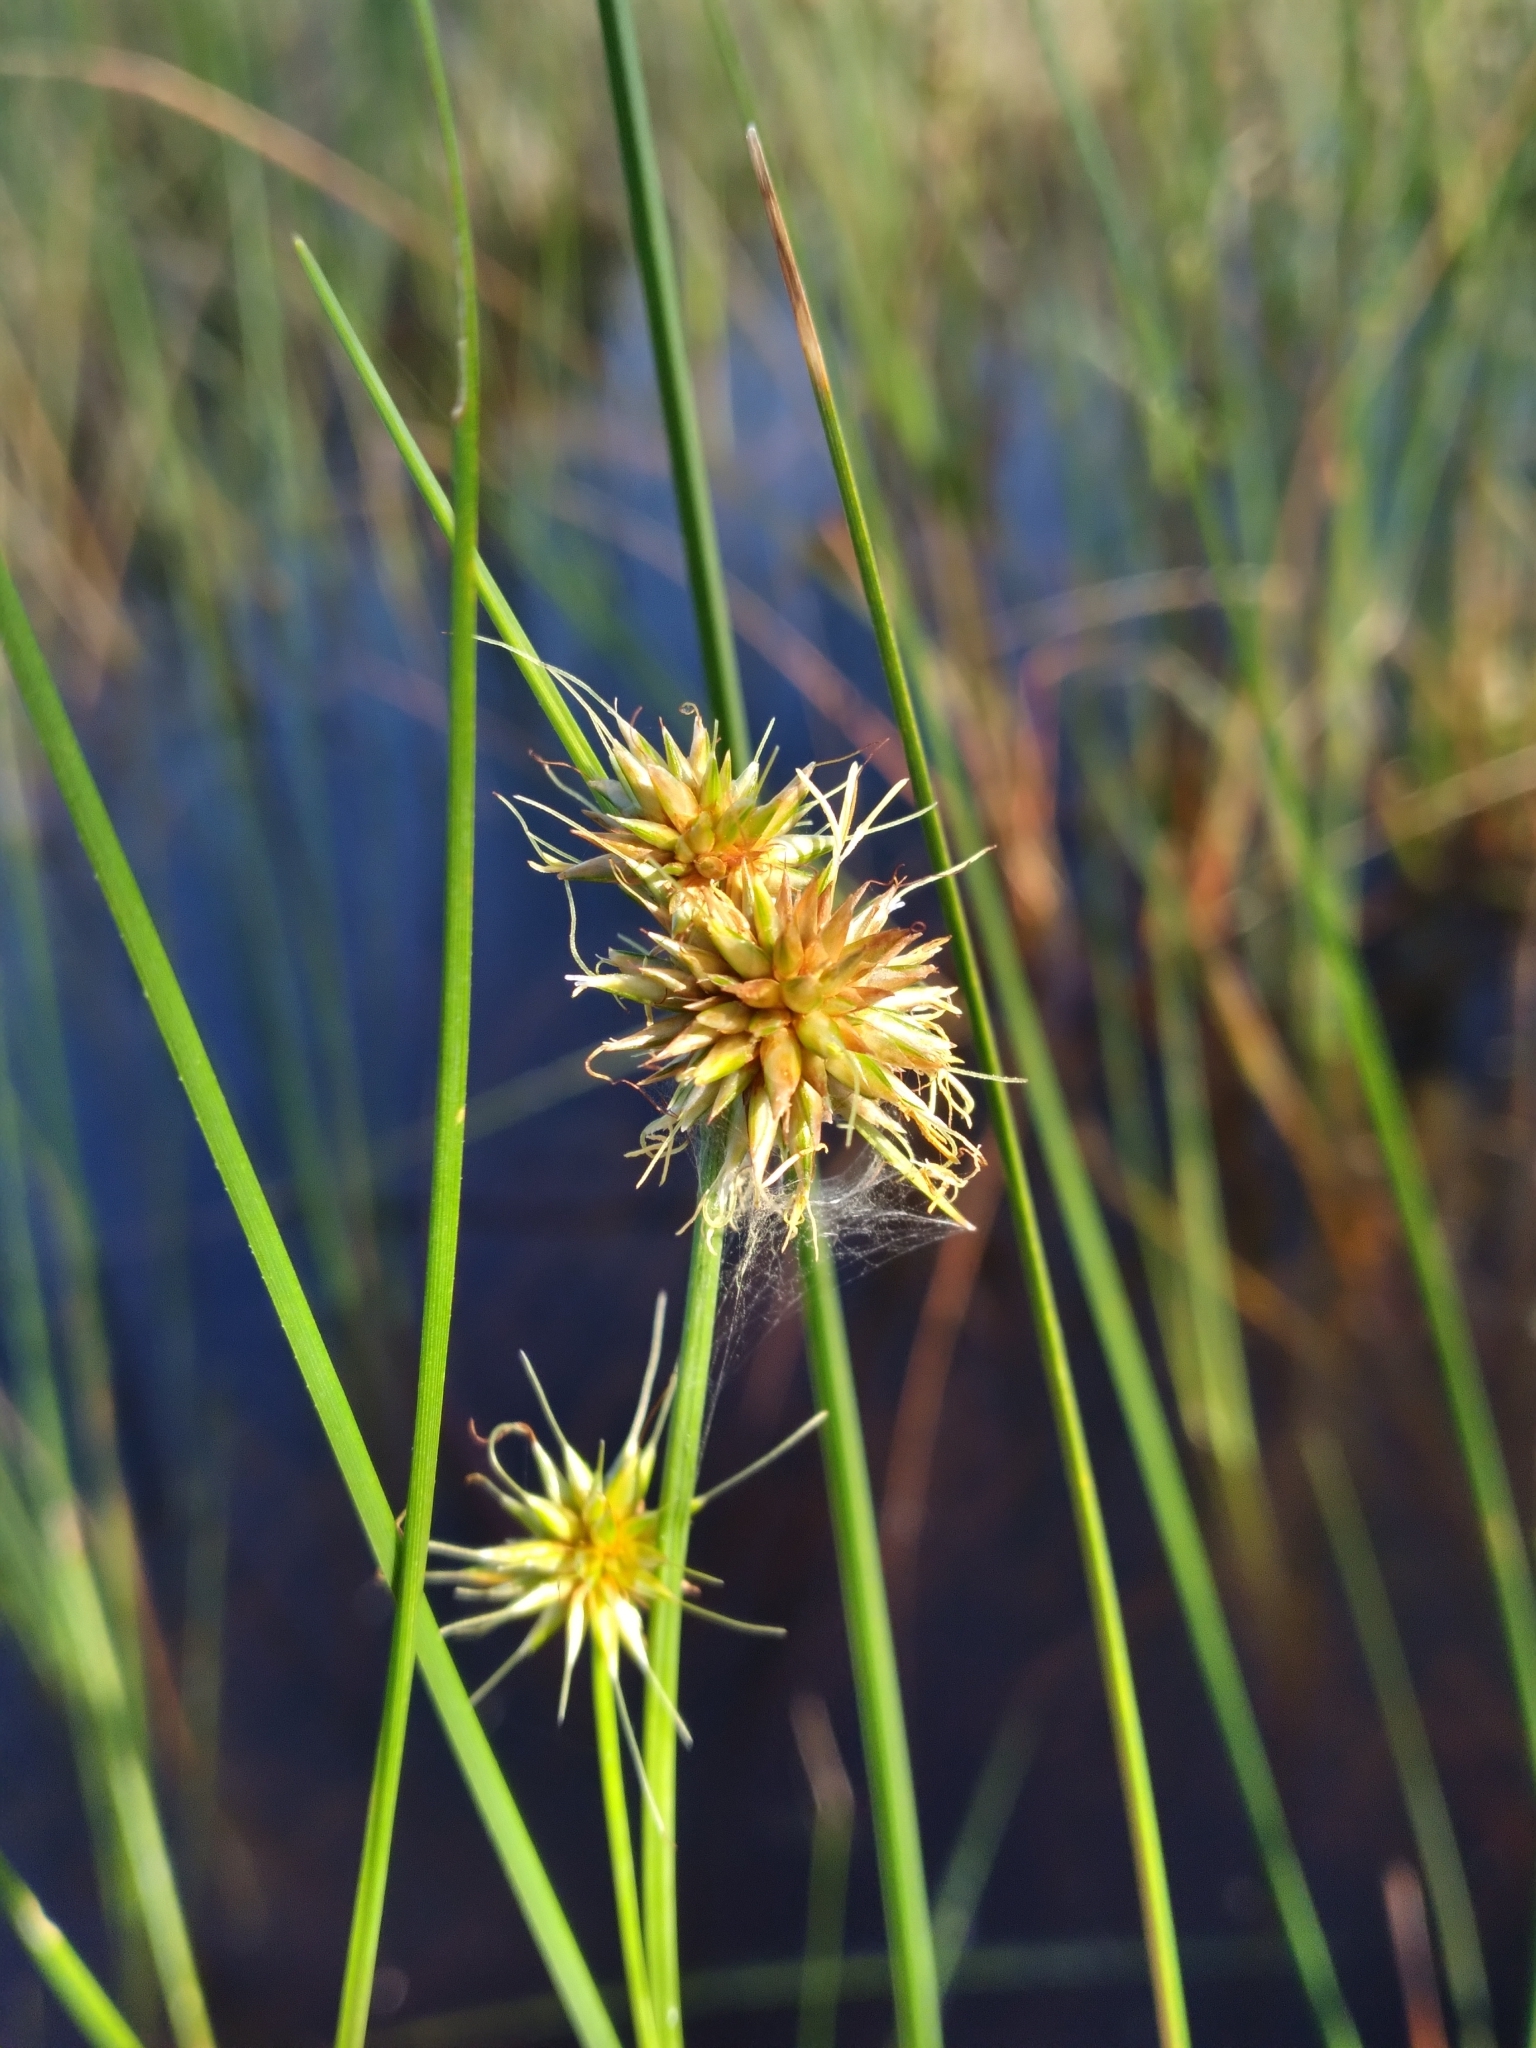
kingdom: Plantae
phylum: Tracheophyta
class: Liliopsida
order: Poales
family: Cyperaceae
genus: Rhynchospora
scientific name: Rhynchospora tracyi
